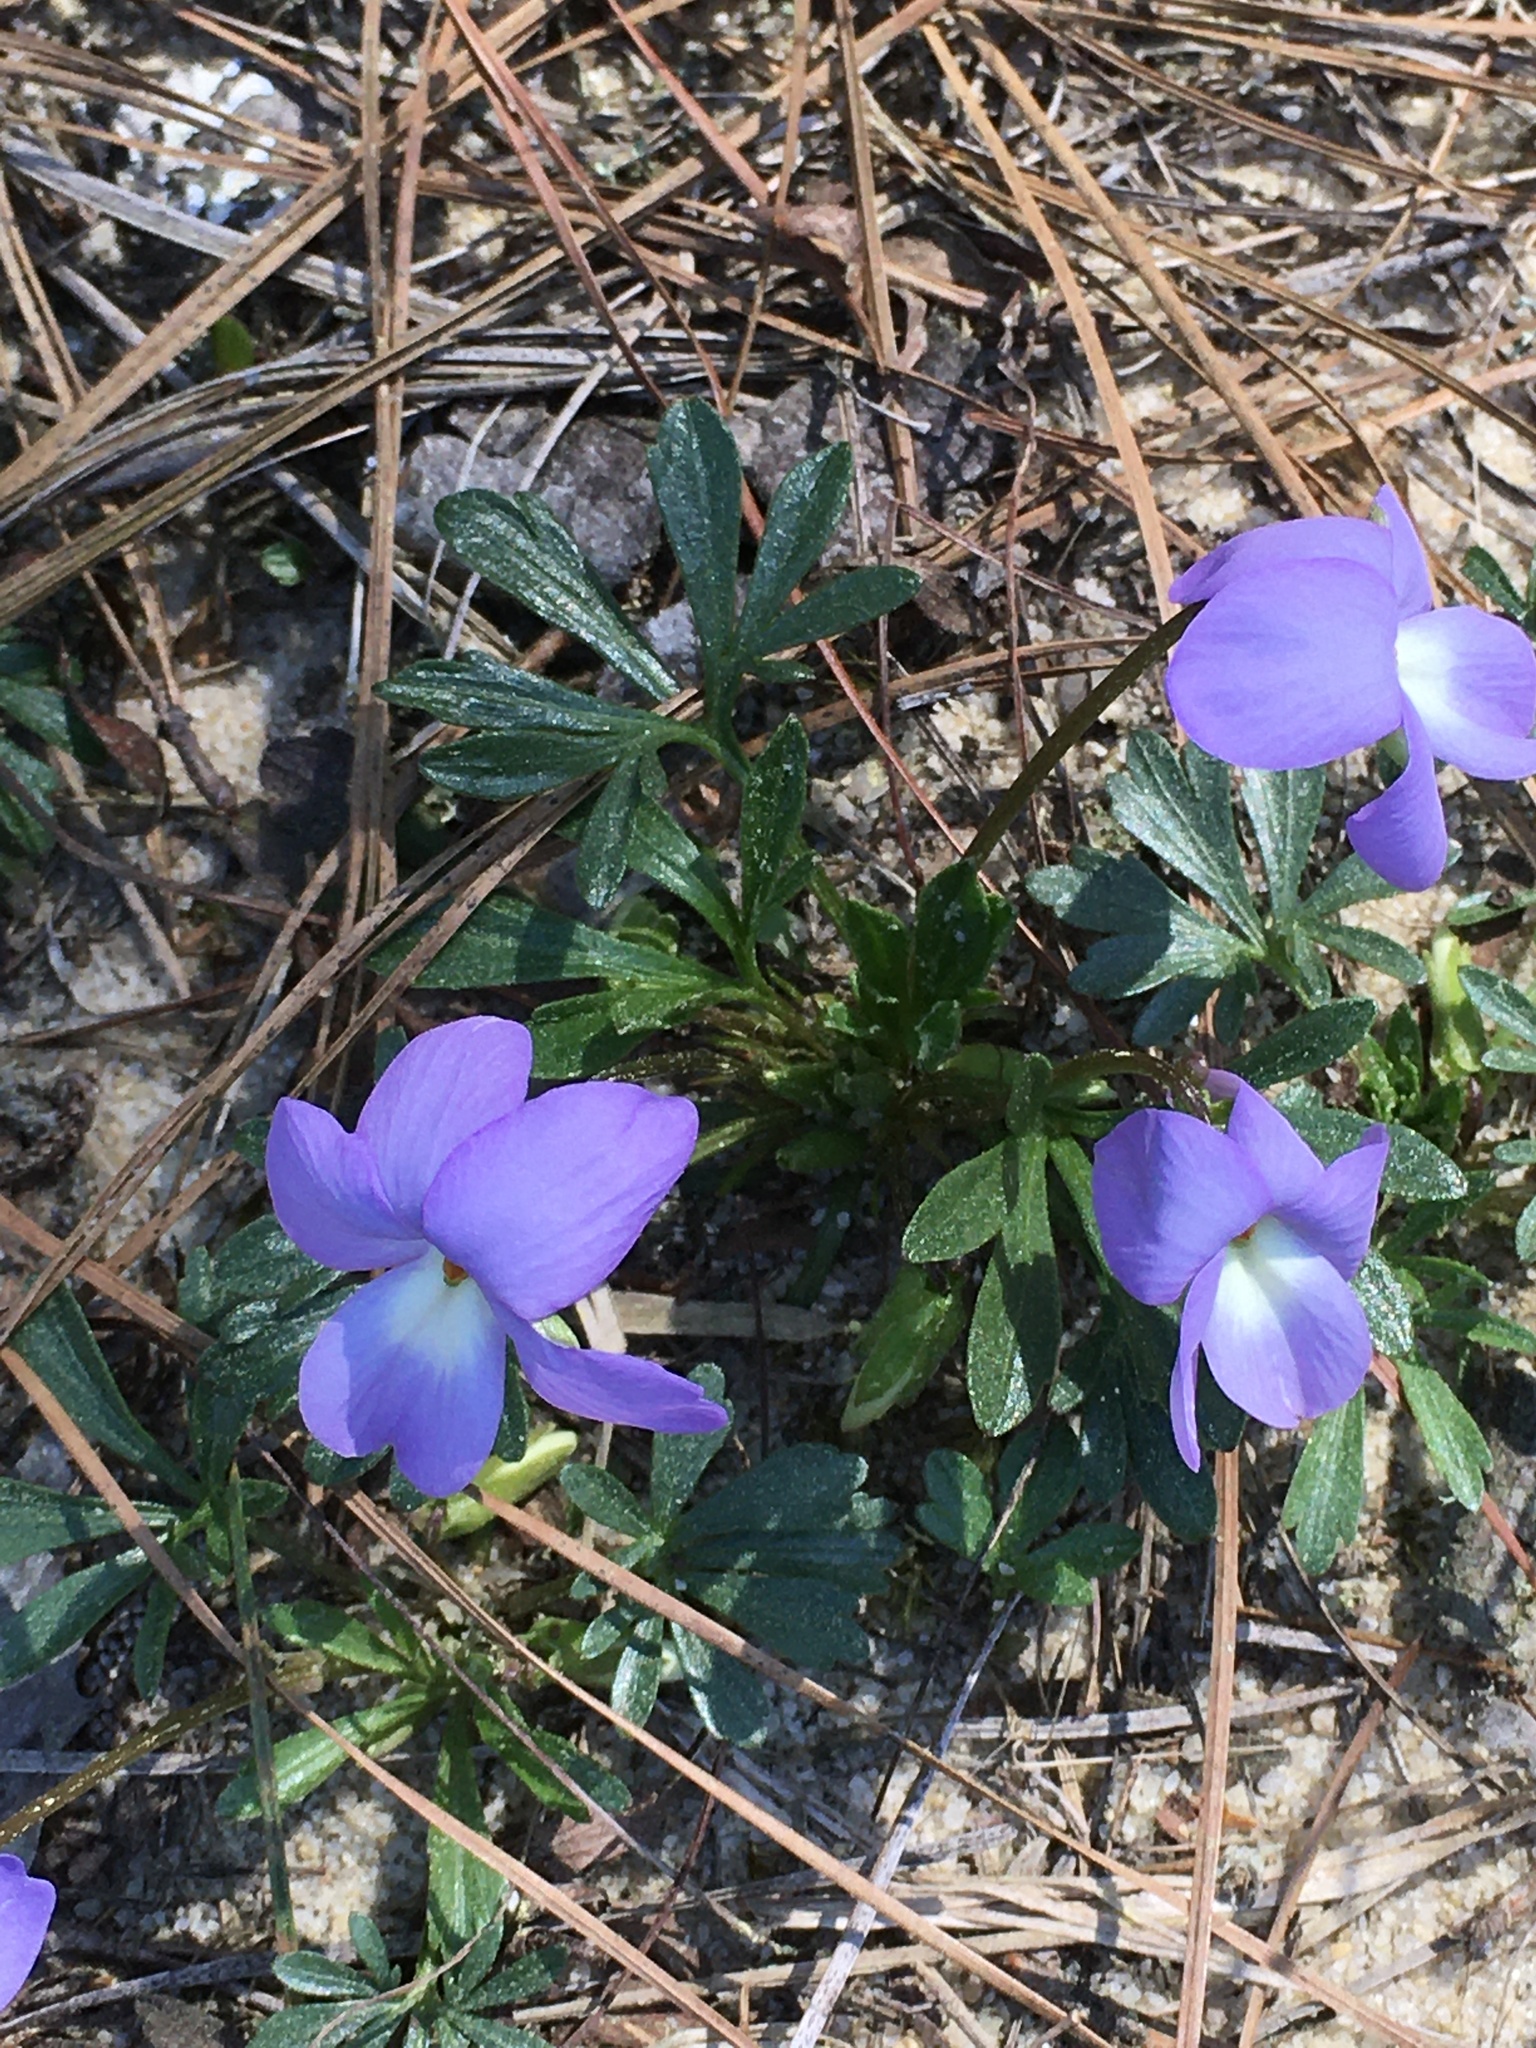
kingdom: Plantae
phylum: Tracheophyta
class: Magnoliopsida
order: Malpighiales
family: Violaceae
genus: Viola
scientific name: Viola pedata
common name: Pansy violet
